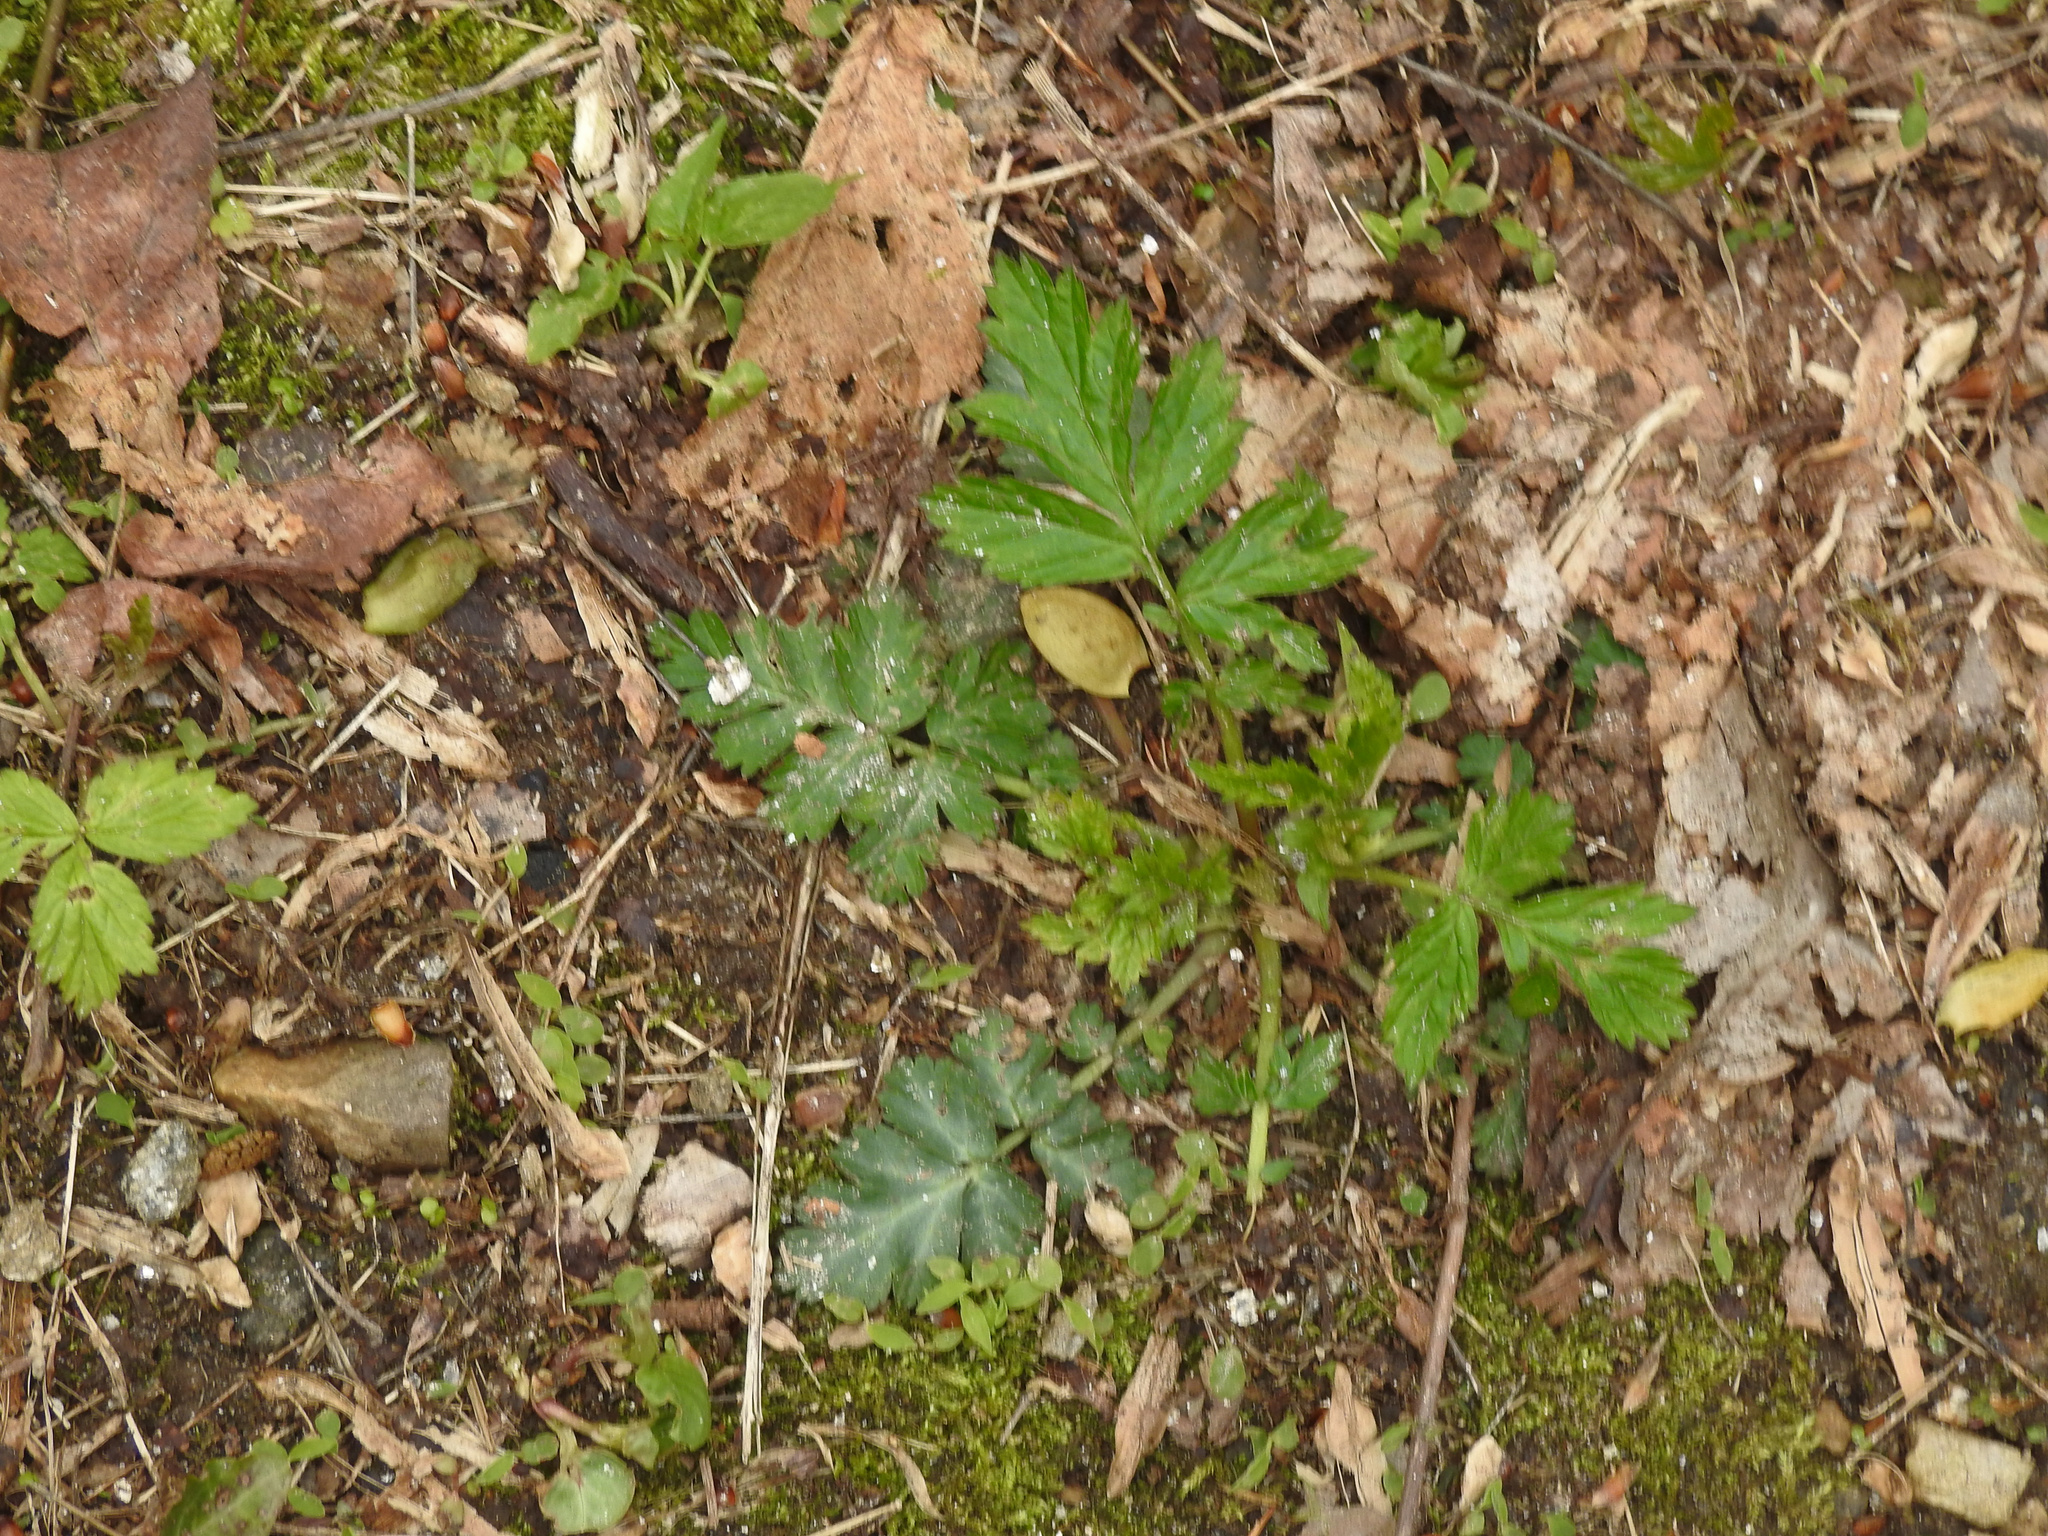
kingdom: Plantae
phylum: Tracheophyta
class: Magnoliopsida
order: Rosales
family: Rosaceae
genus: Geum
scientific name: Geum canadense
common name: White avens
